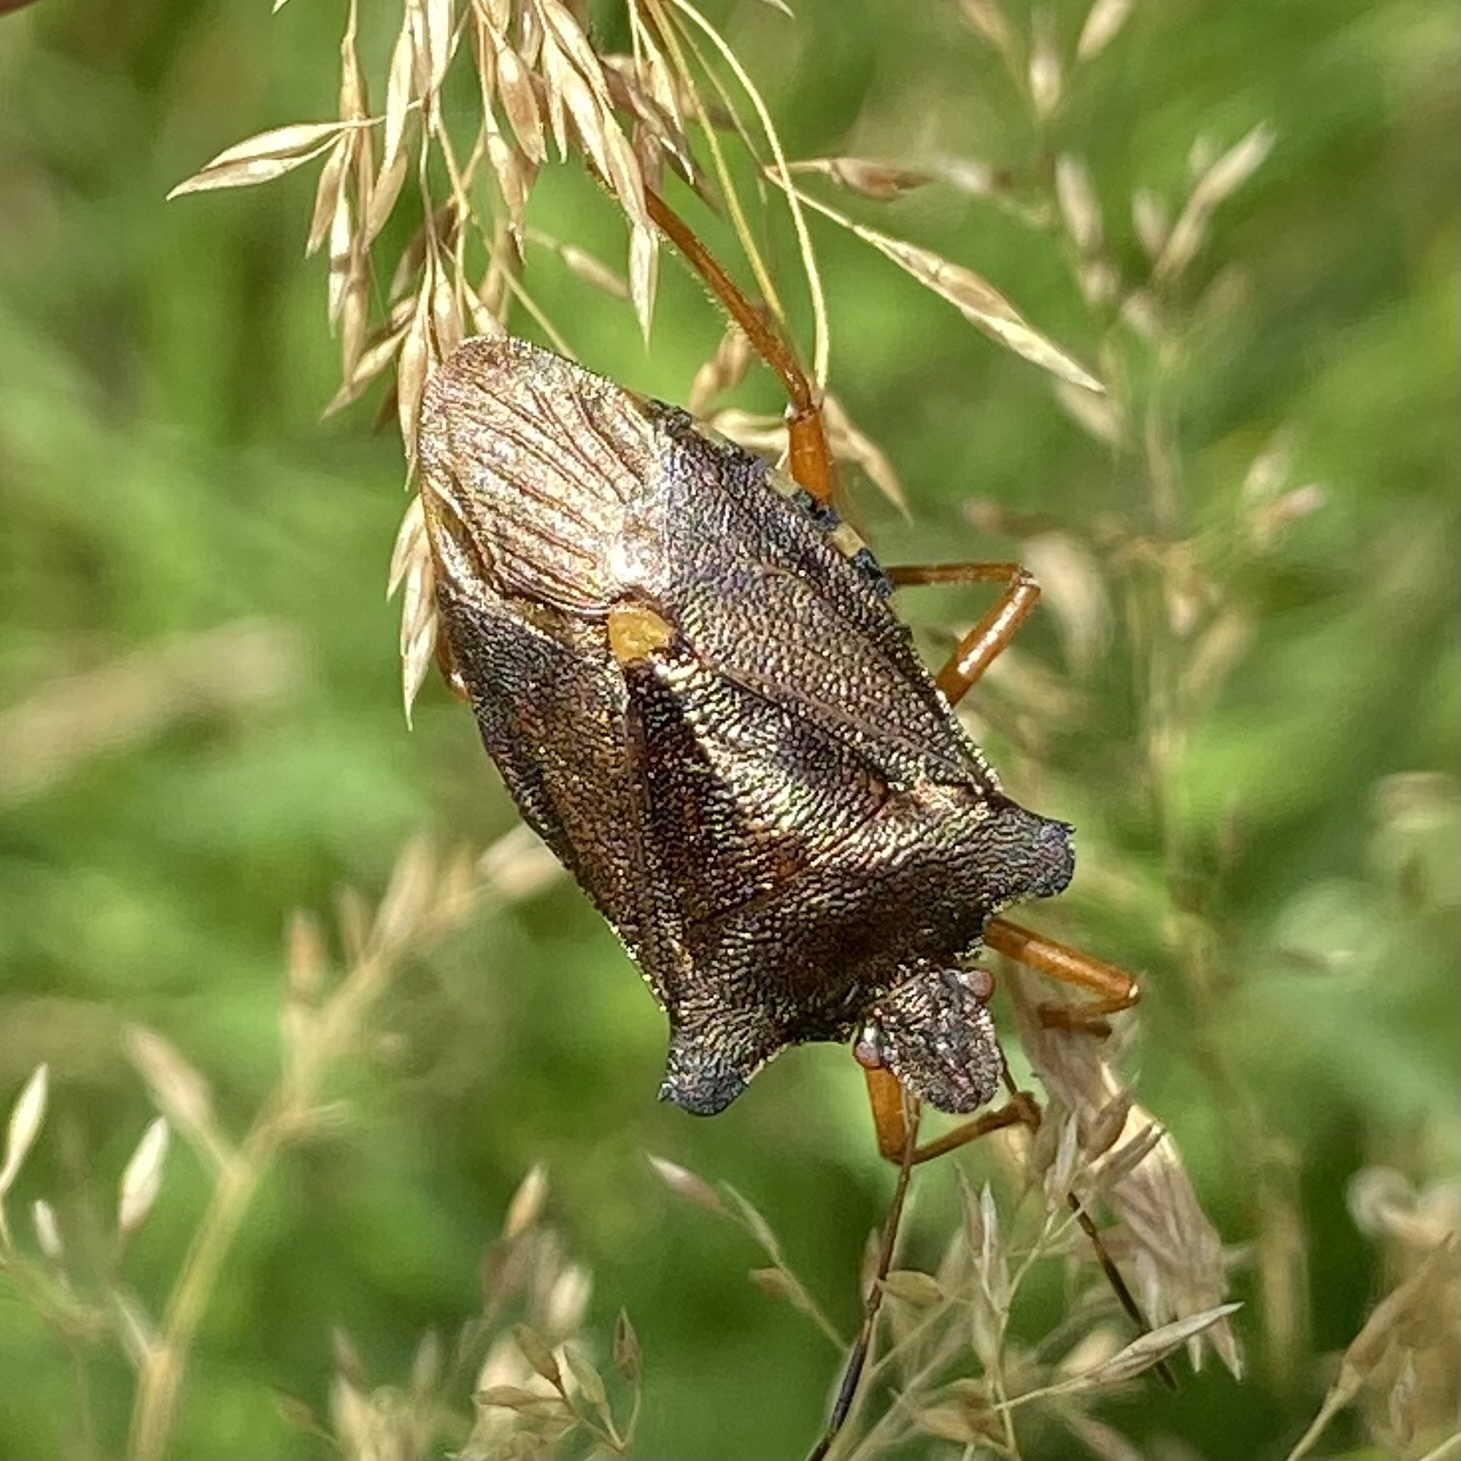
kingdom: Animalia
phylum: Arthropoda
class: Insecta
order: Hemiptera
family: Pentatomidae
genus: Pentatoma
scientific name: Pentatoma rufipes
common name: Forest bug
